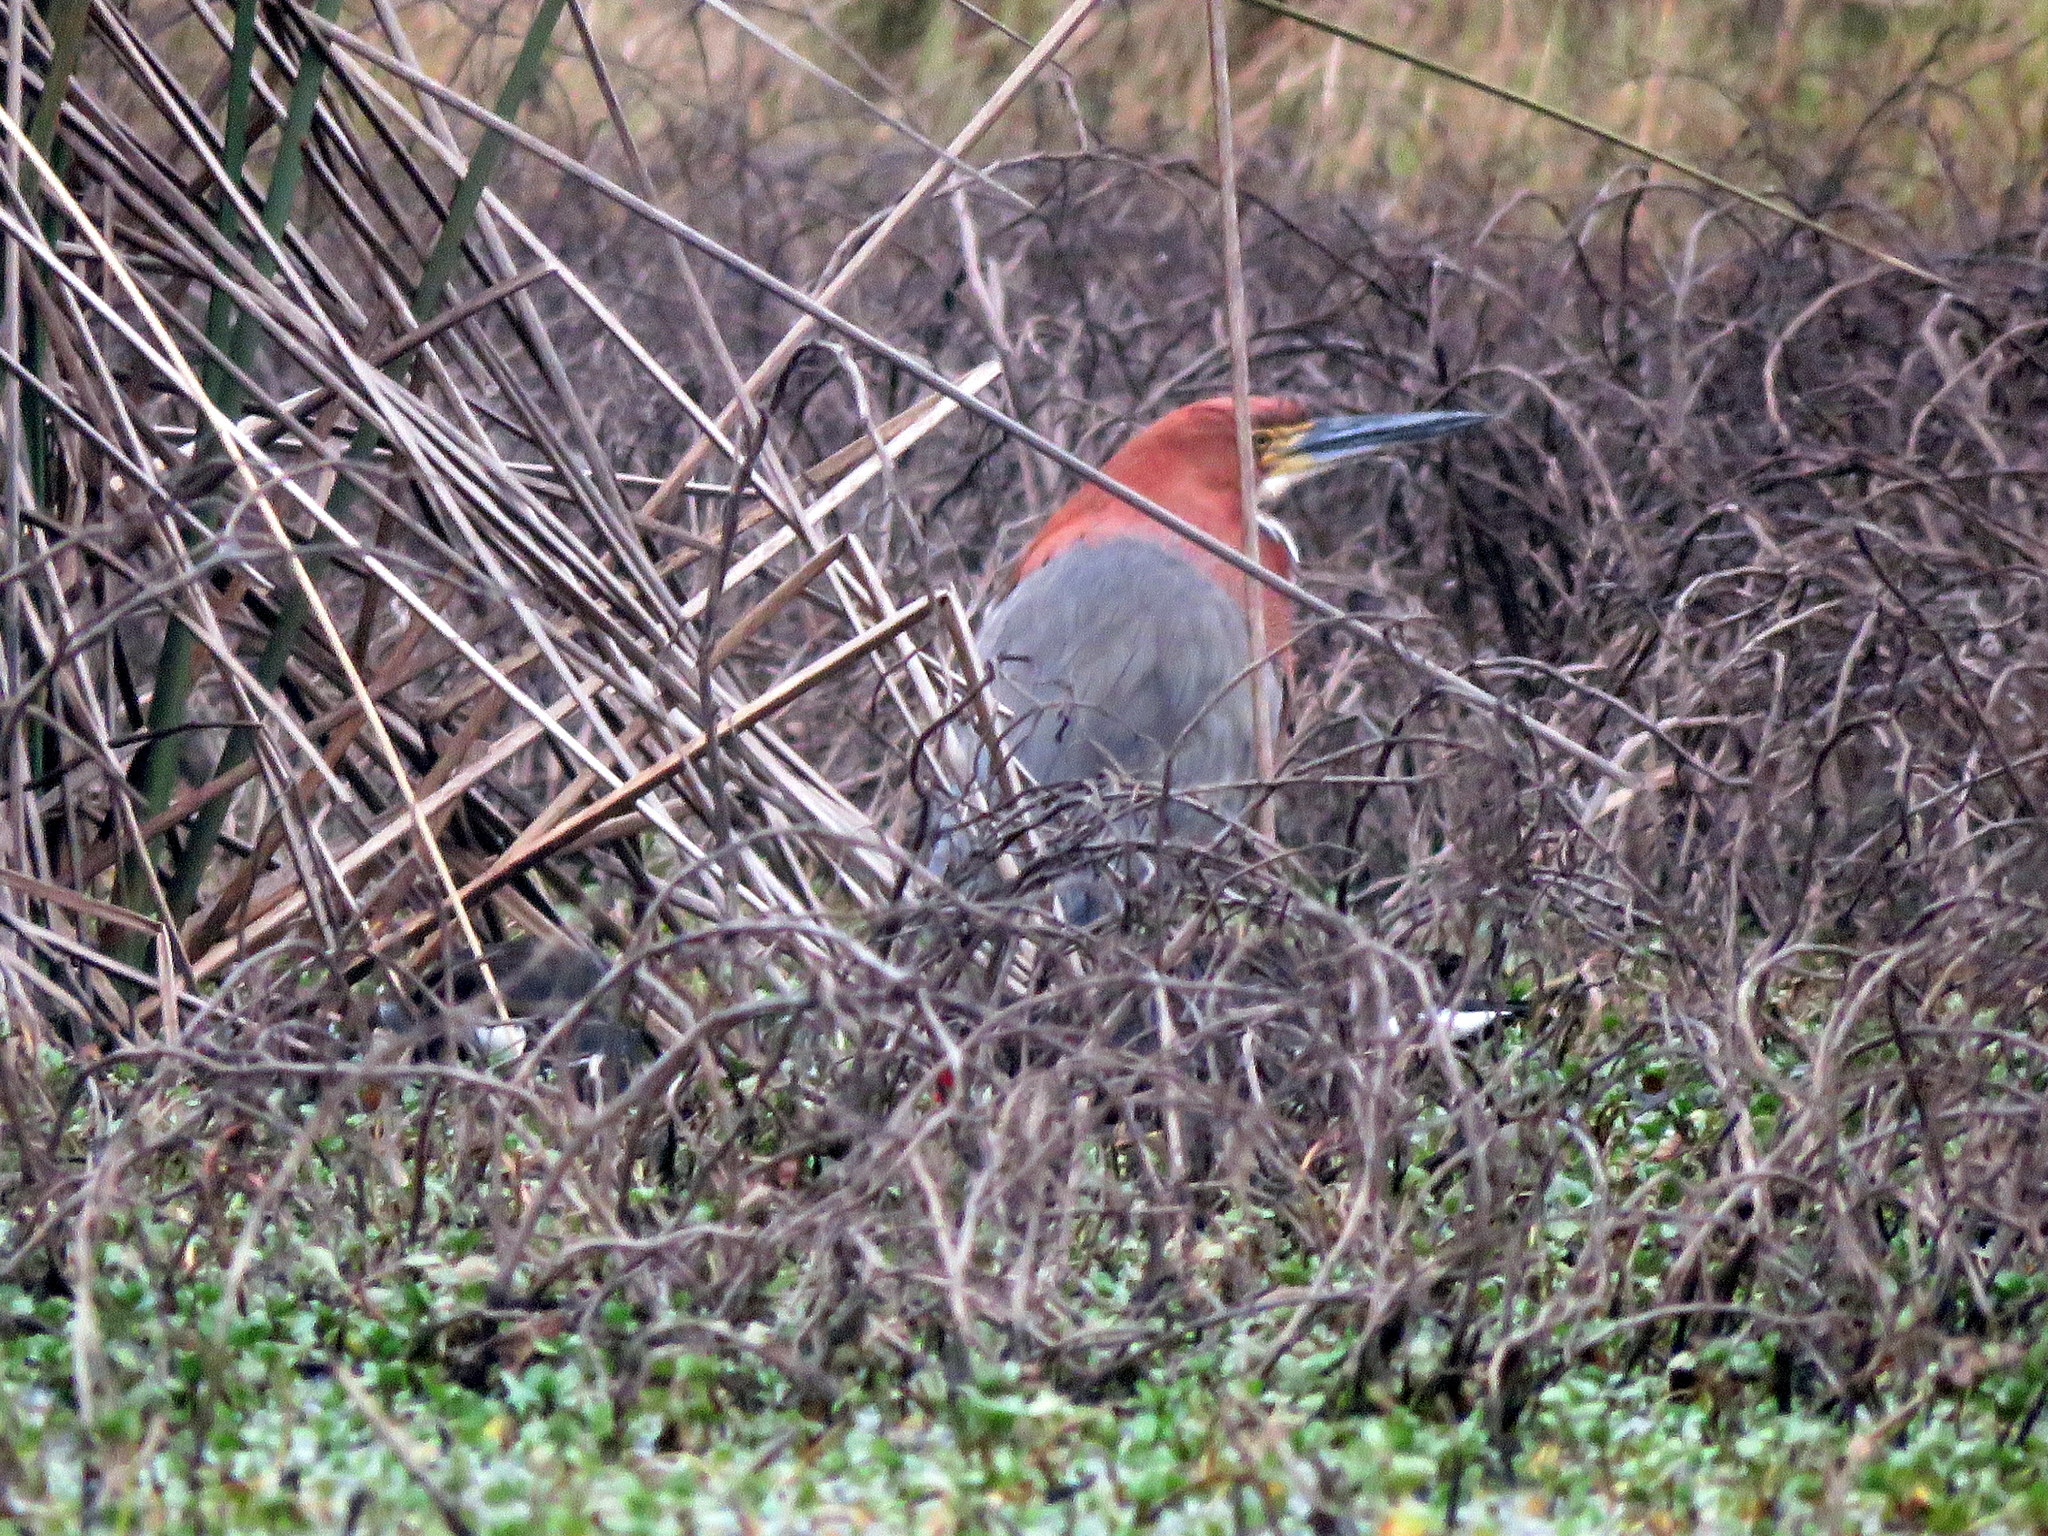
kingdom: Animalia
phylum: Chordata
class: Aves
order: Pelecaniformes
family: Ardeidae
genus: Tigrisoma
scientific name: Tigrisoma lineatum
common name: Rufescent tiger-heron
